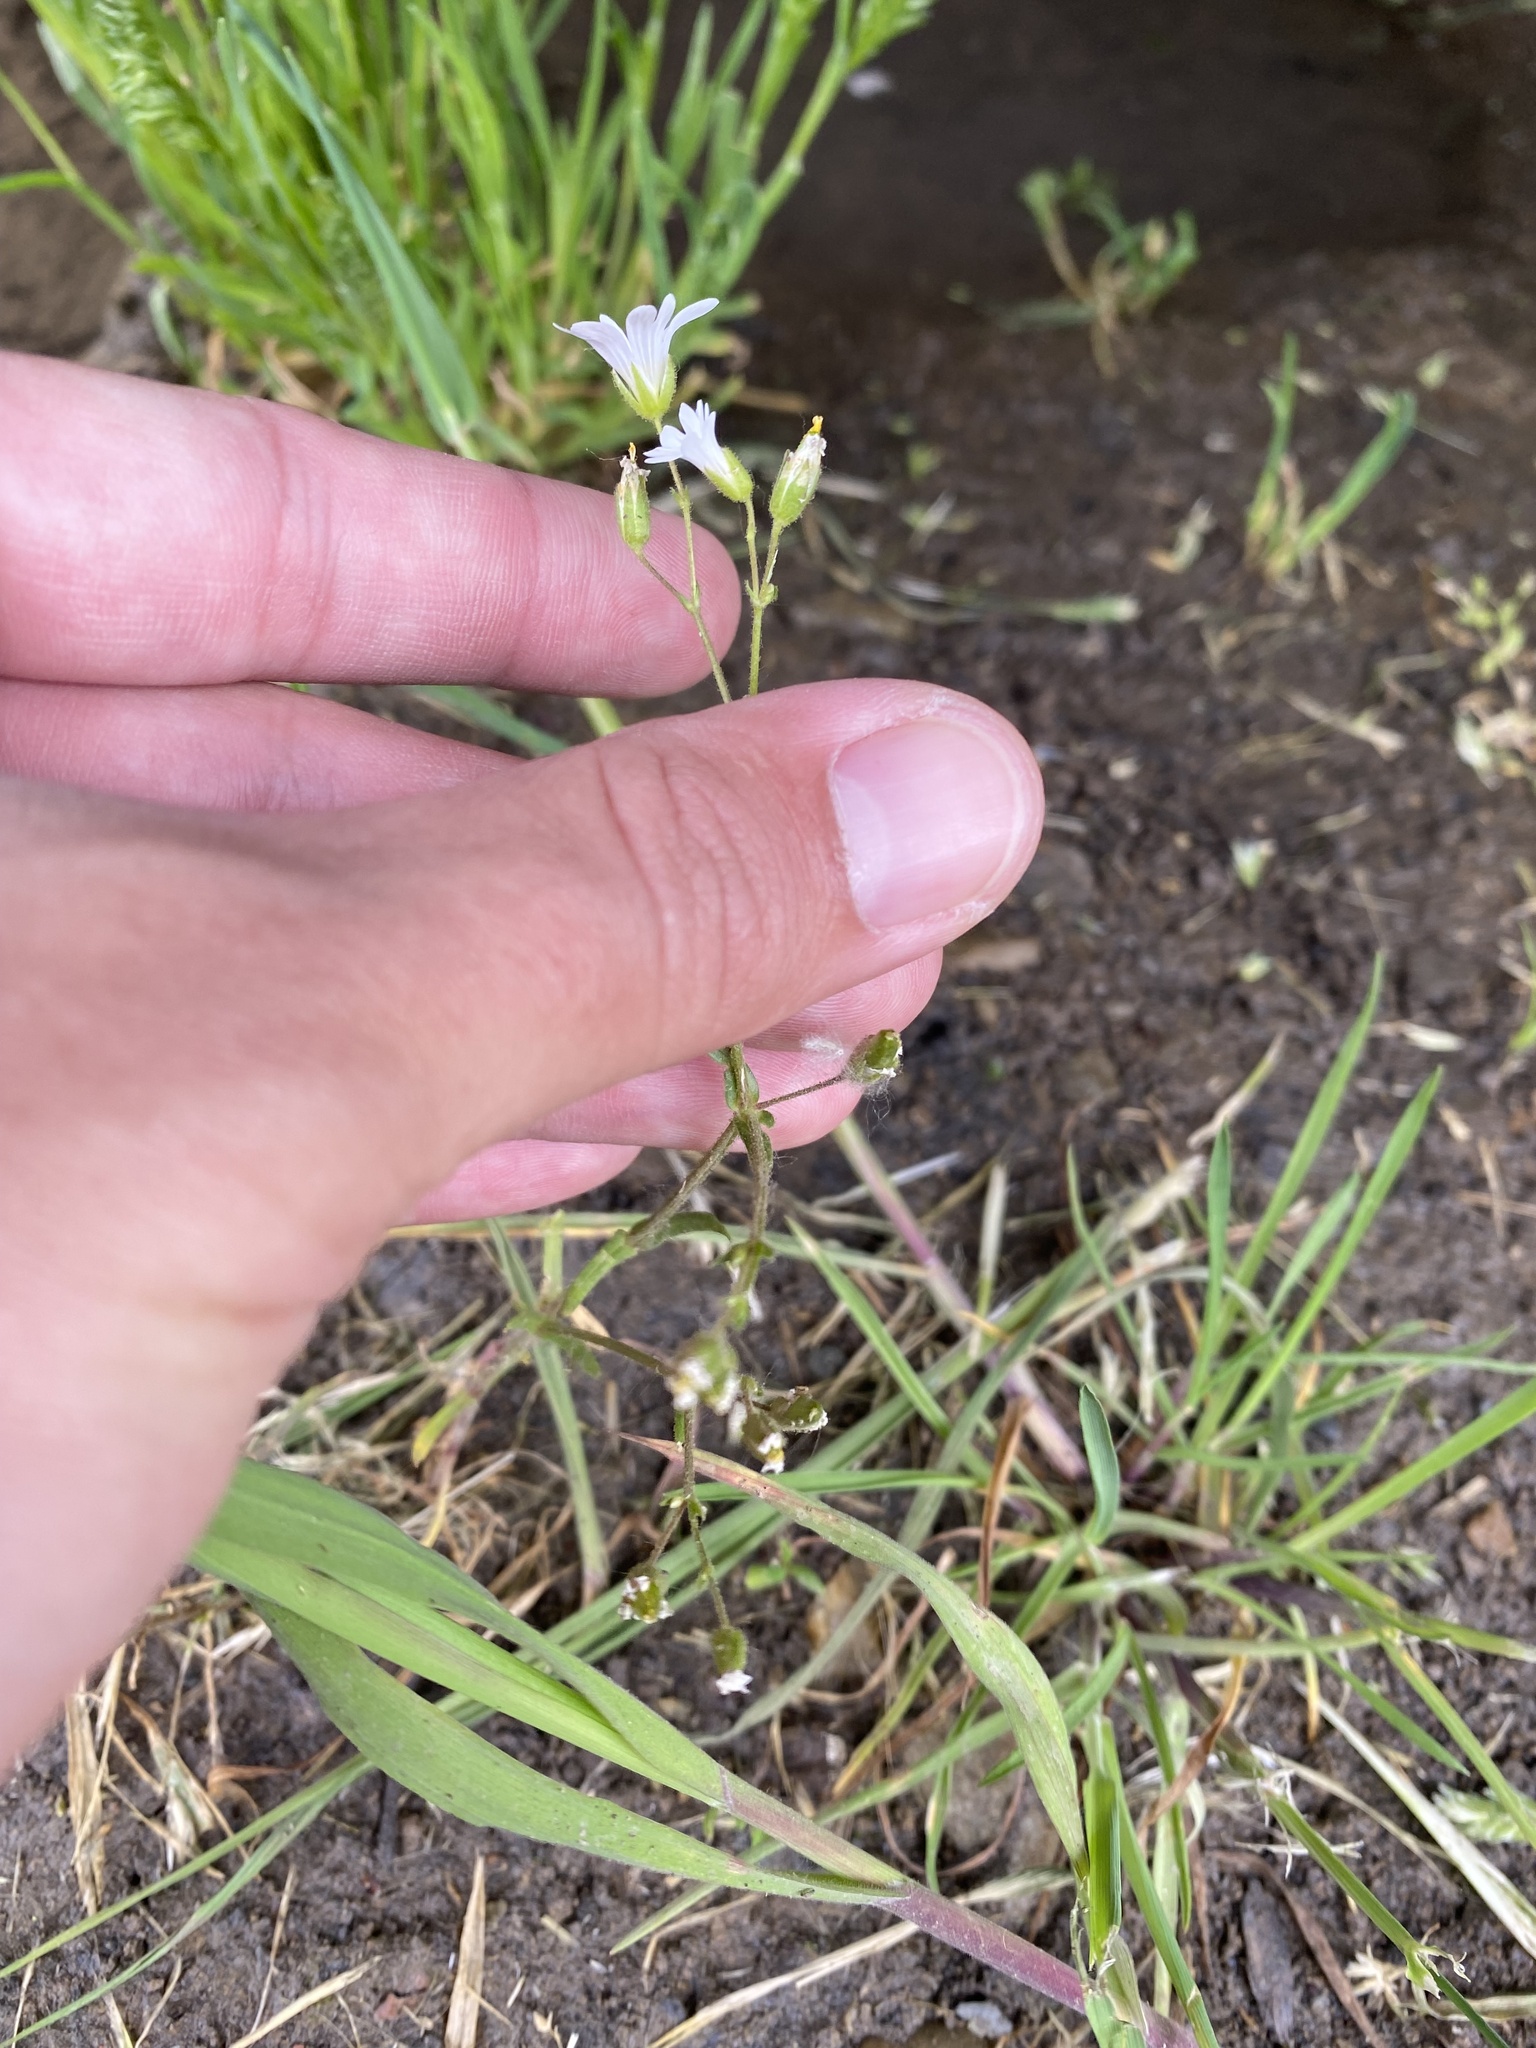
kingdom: Plantae
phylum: Tracheophyta
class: Magnoliopsida
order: Caryophyllales
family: Caryophyllaceae
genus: Dichodon
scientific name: Dichodon viscidum
